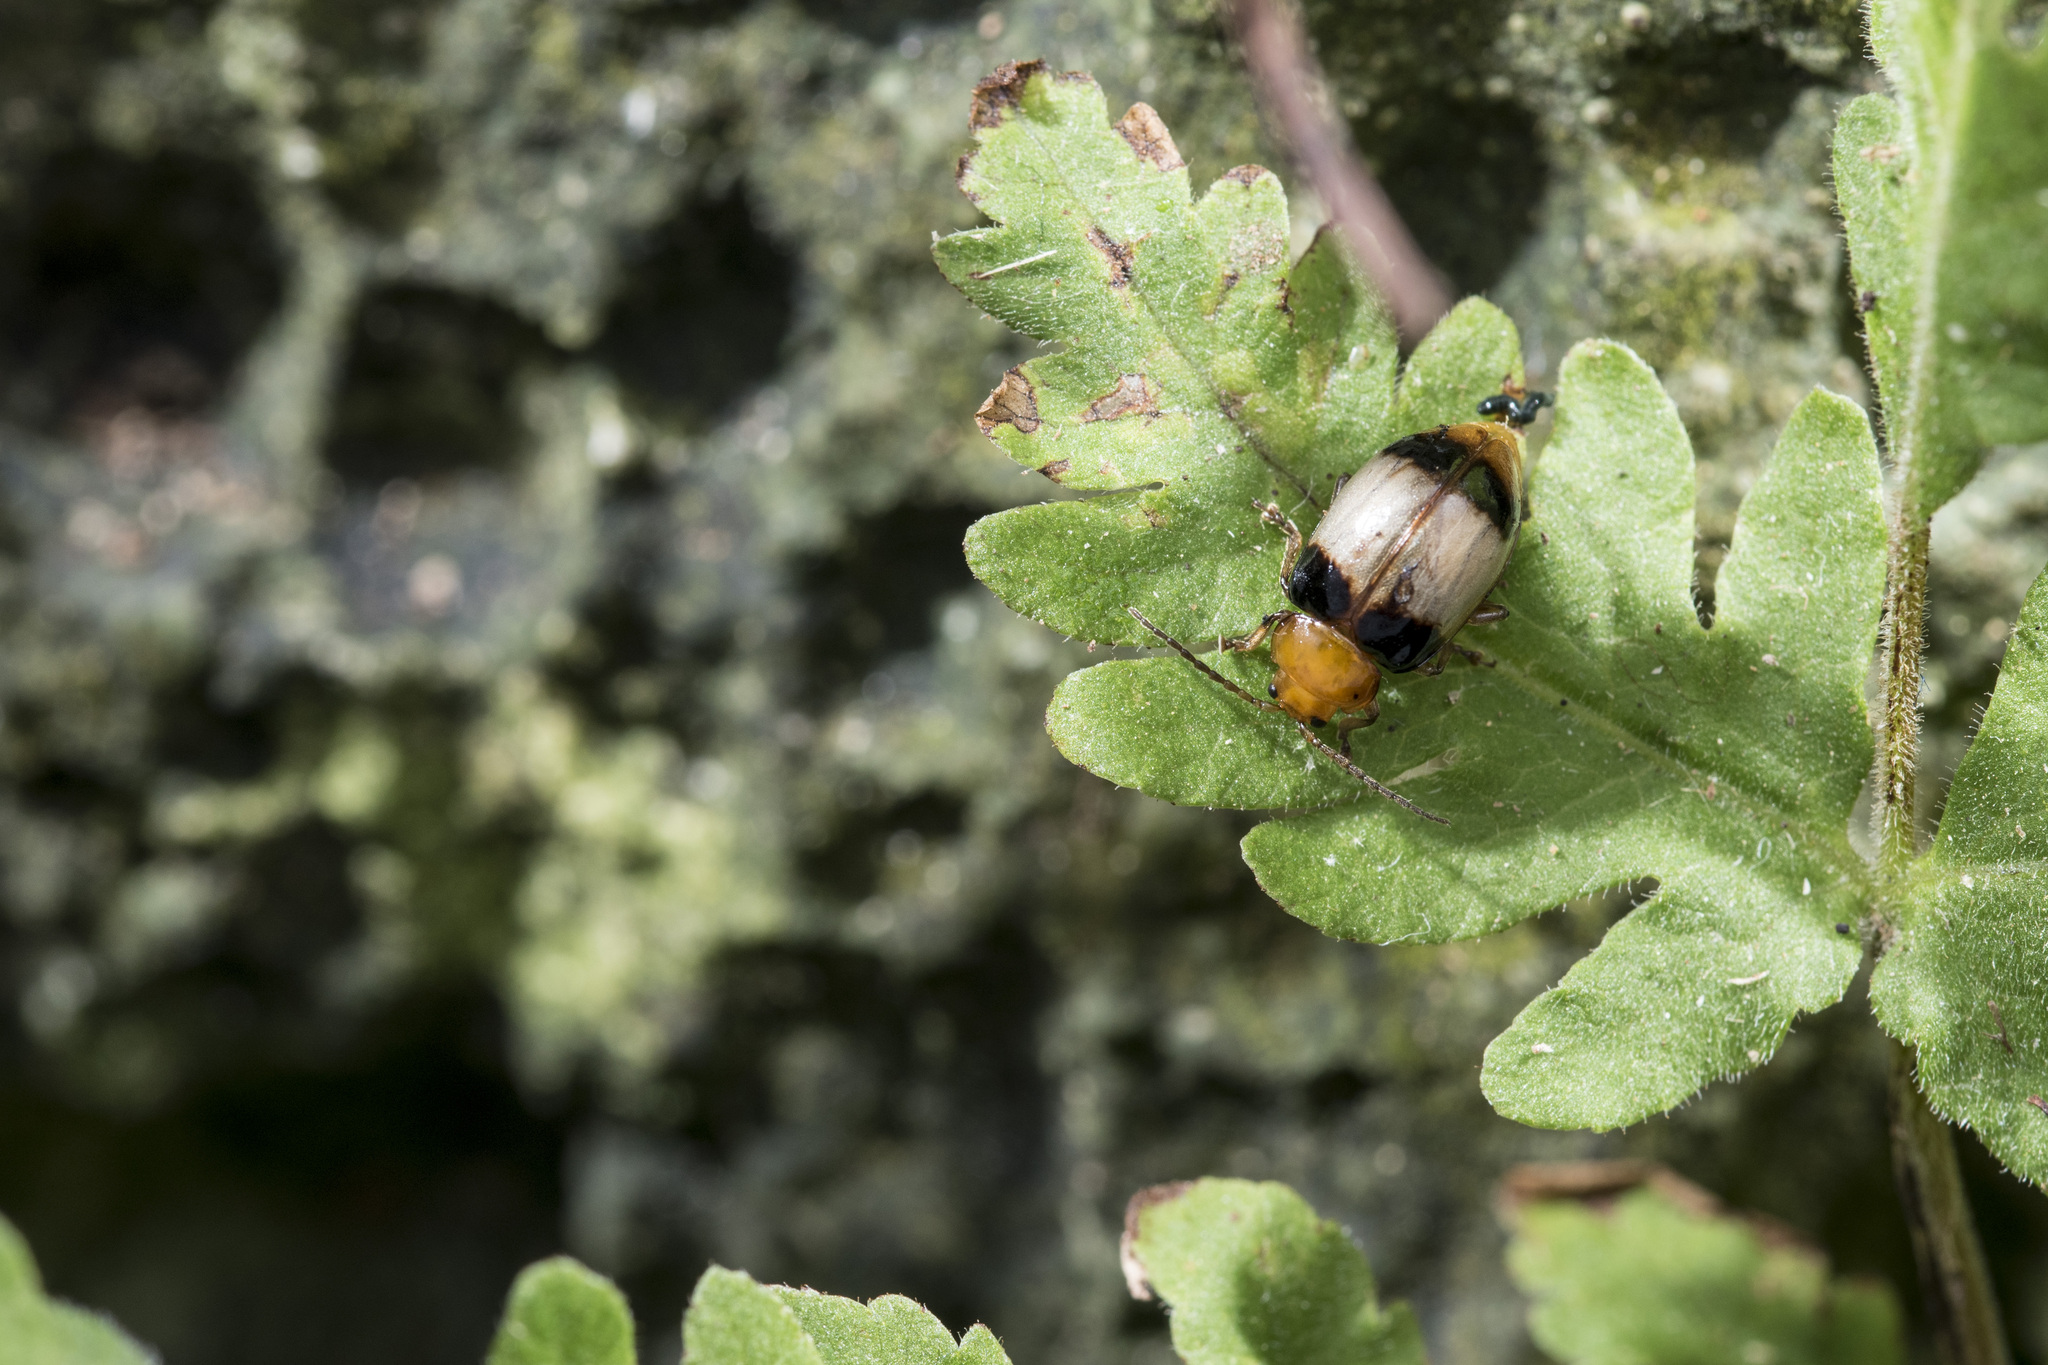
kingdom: Animalia
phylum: Arthropoda
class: Insecta
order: Coleoptera
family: Chrysomelidae
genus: Phygasia
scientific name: Phygasia diluta
